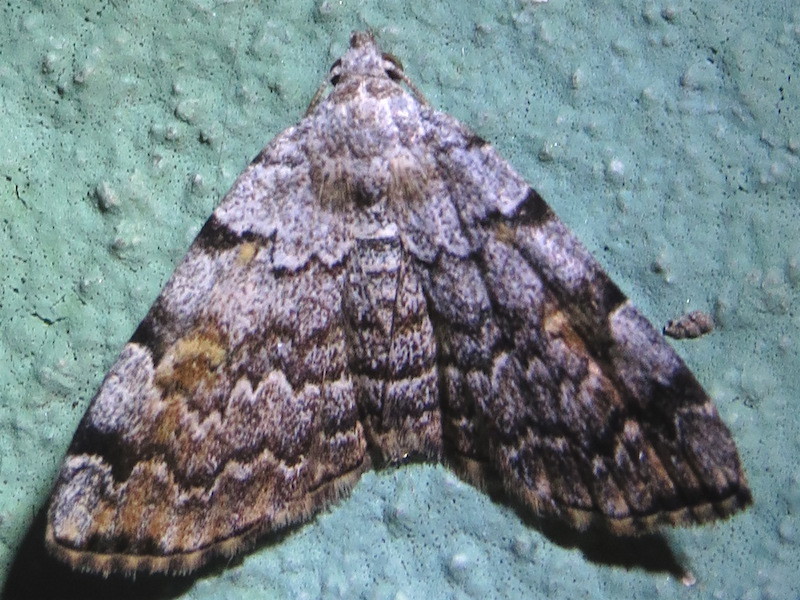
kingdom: Animalia
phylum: Arthropoda
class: Insecta
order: Lepidoptera
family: Erebidae
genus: Idia
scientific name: Idia americalis
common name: American idia moth
